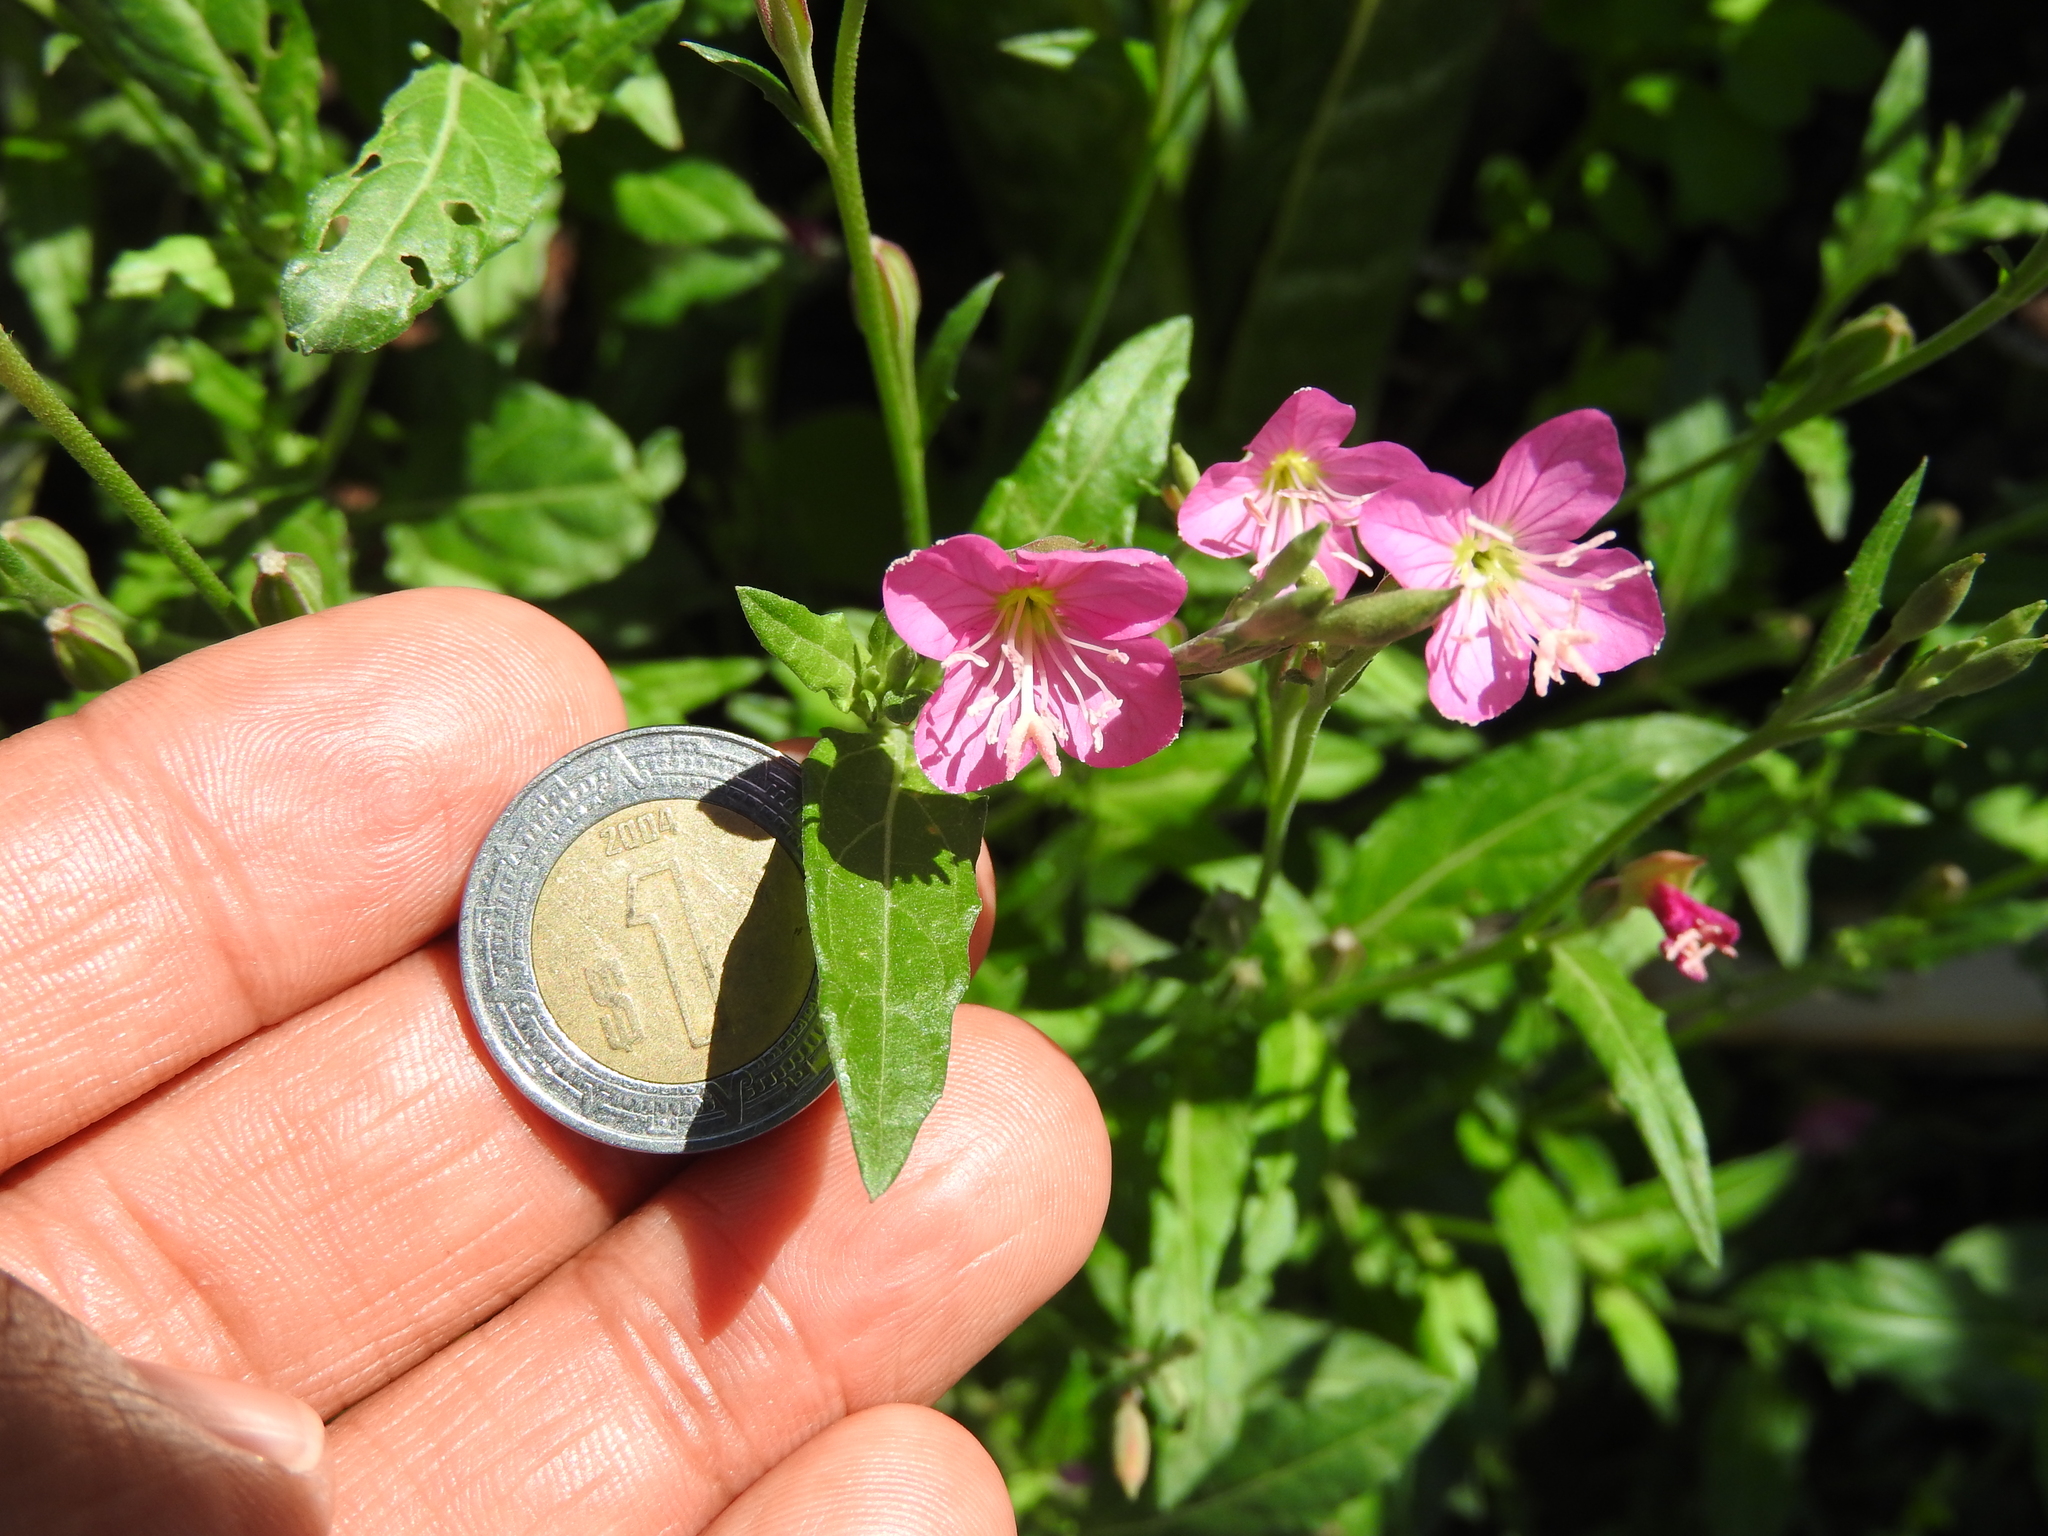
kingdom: Plantae
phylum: Tracheophyta
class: Magnoliopsida
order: Myrtales
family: Onagraceae
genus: Oenothera
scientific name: Oenothera rosea
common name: Rosy evening-primrose
